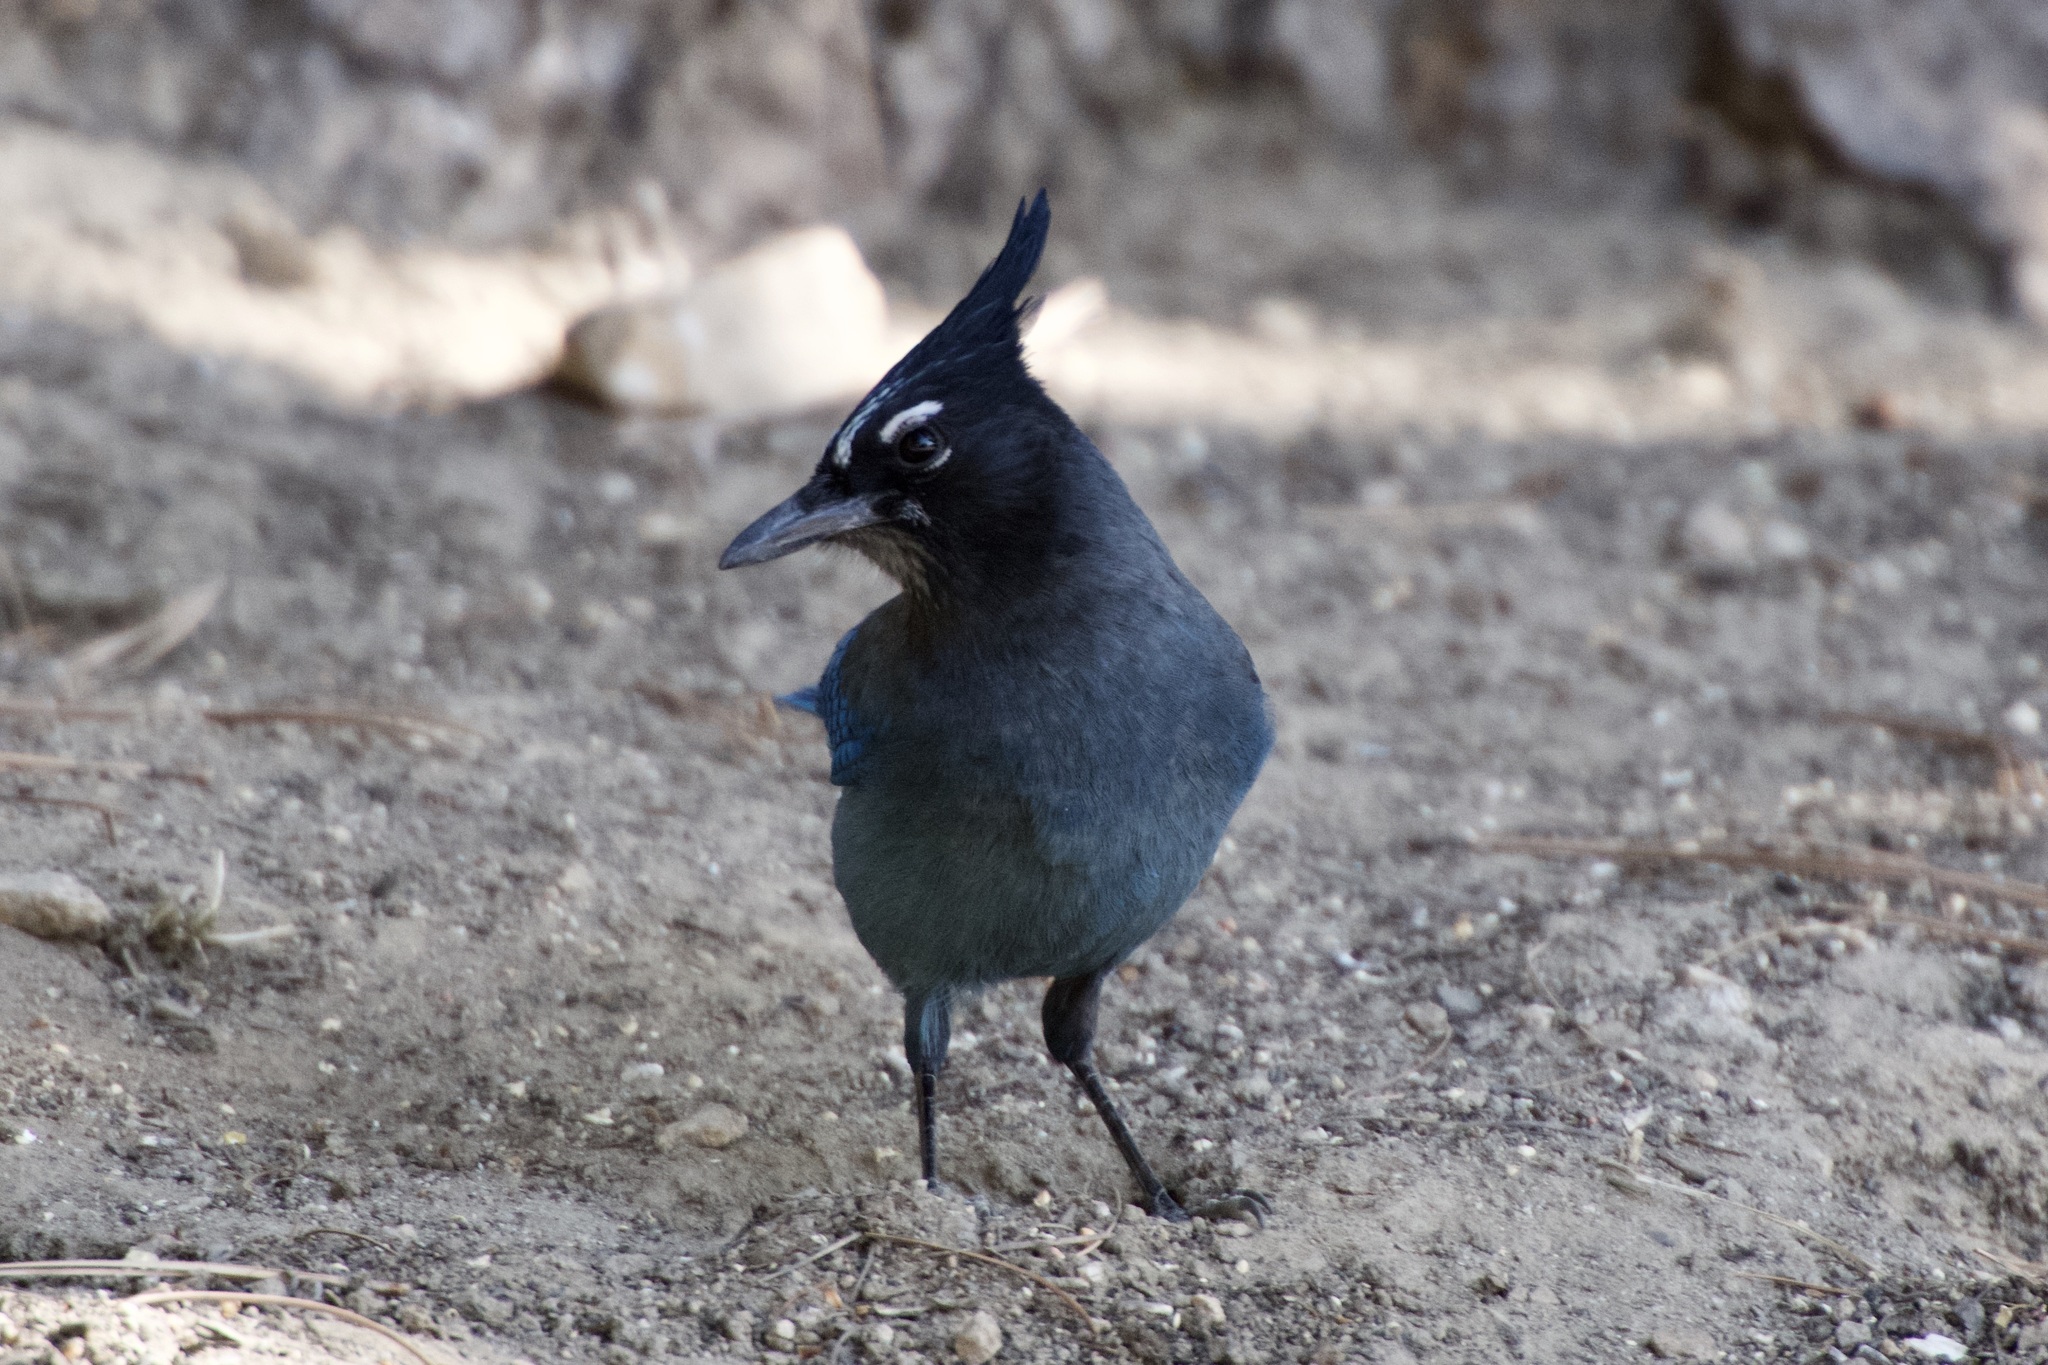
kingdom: Animalia
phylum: Chordata
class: Aves
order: Passeriformes
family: Corvidae
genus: Cyanocitta
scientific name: Cyanocitta stelleri
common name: Steller's jay
